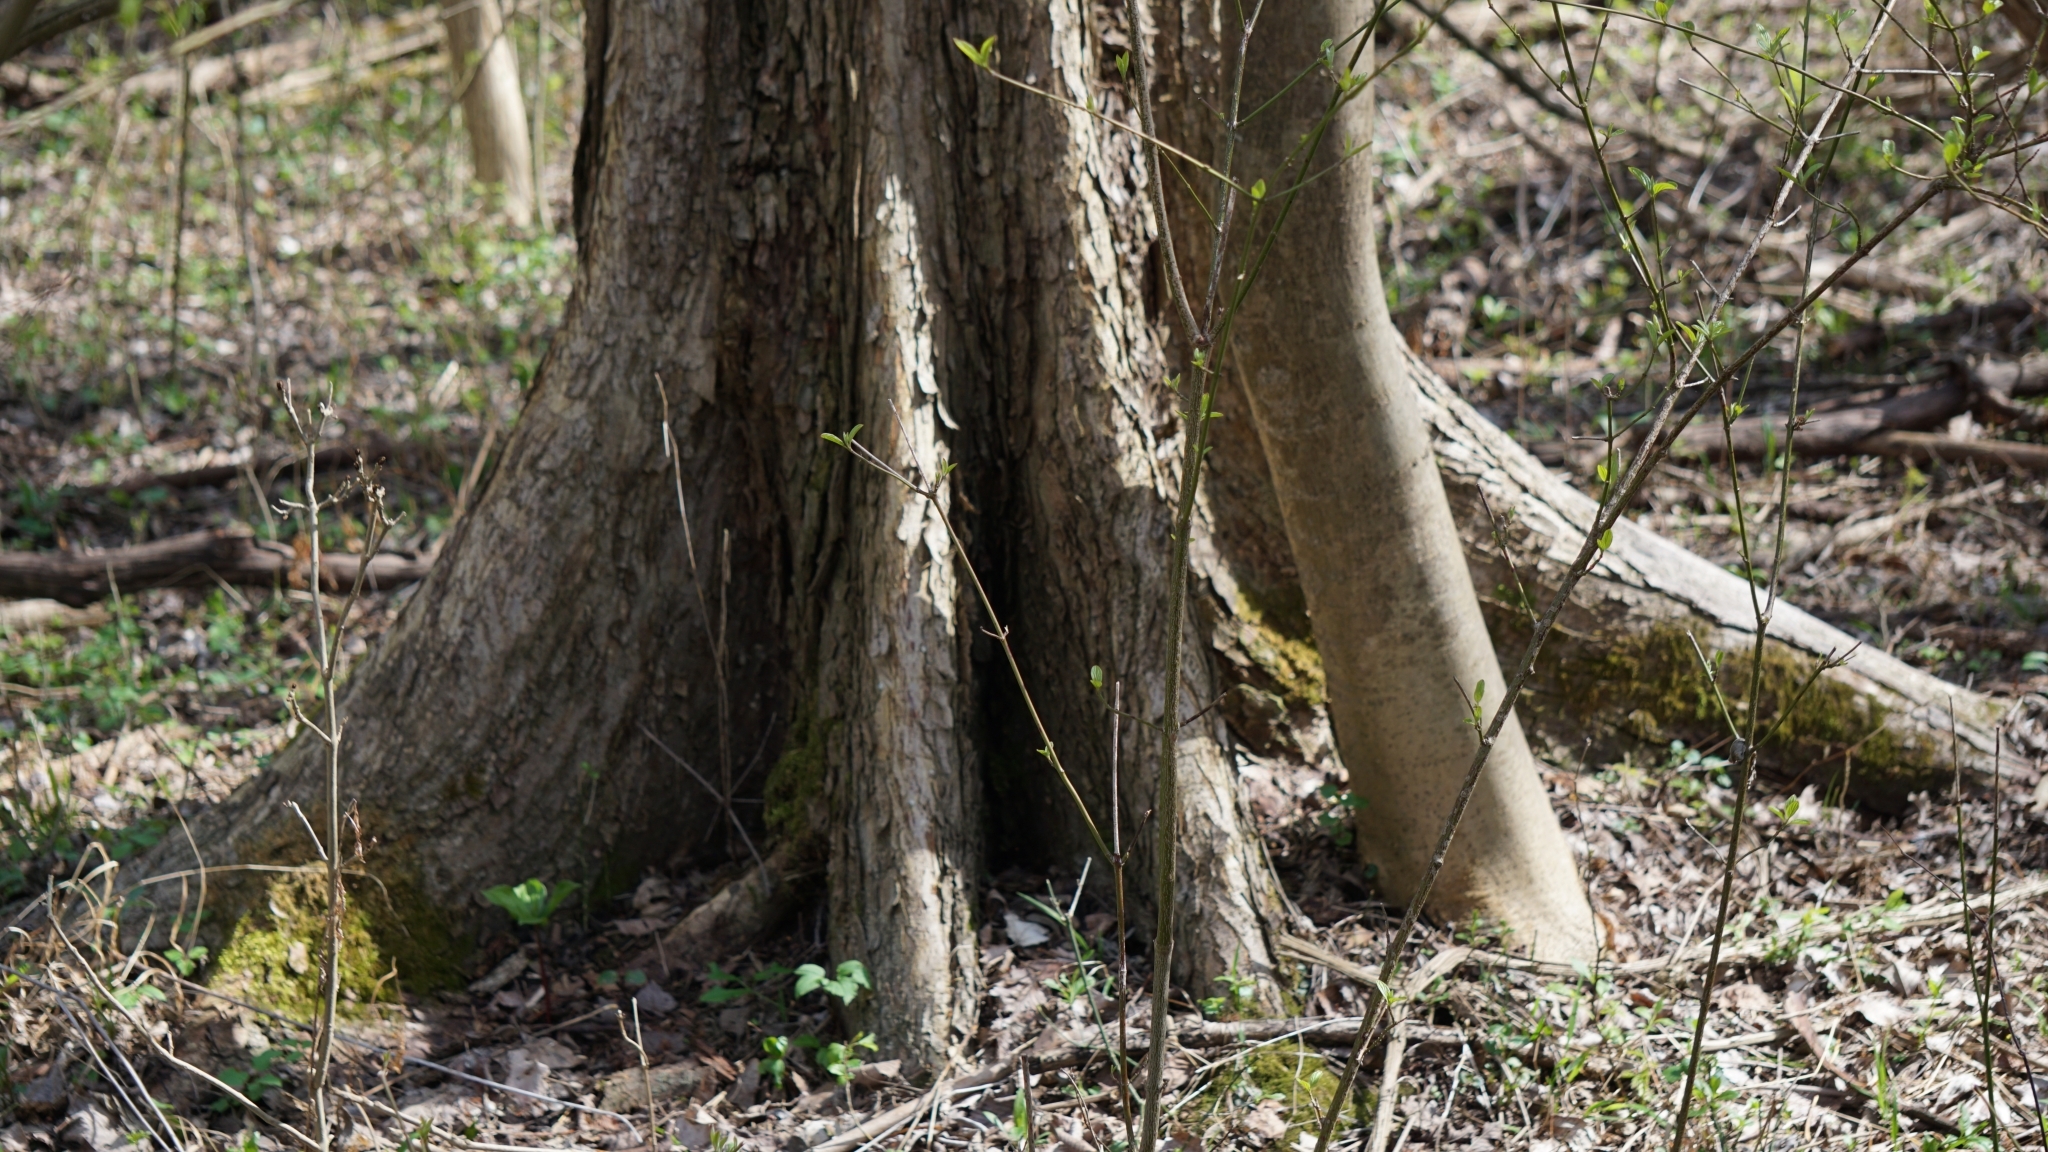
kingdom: Plantae
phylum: Tracheophyta
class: Magnoliopsida
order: Rosales
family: Ulmaceae
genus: Ulmus
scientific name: Ulmus laevis
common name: European white-elm
